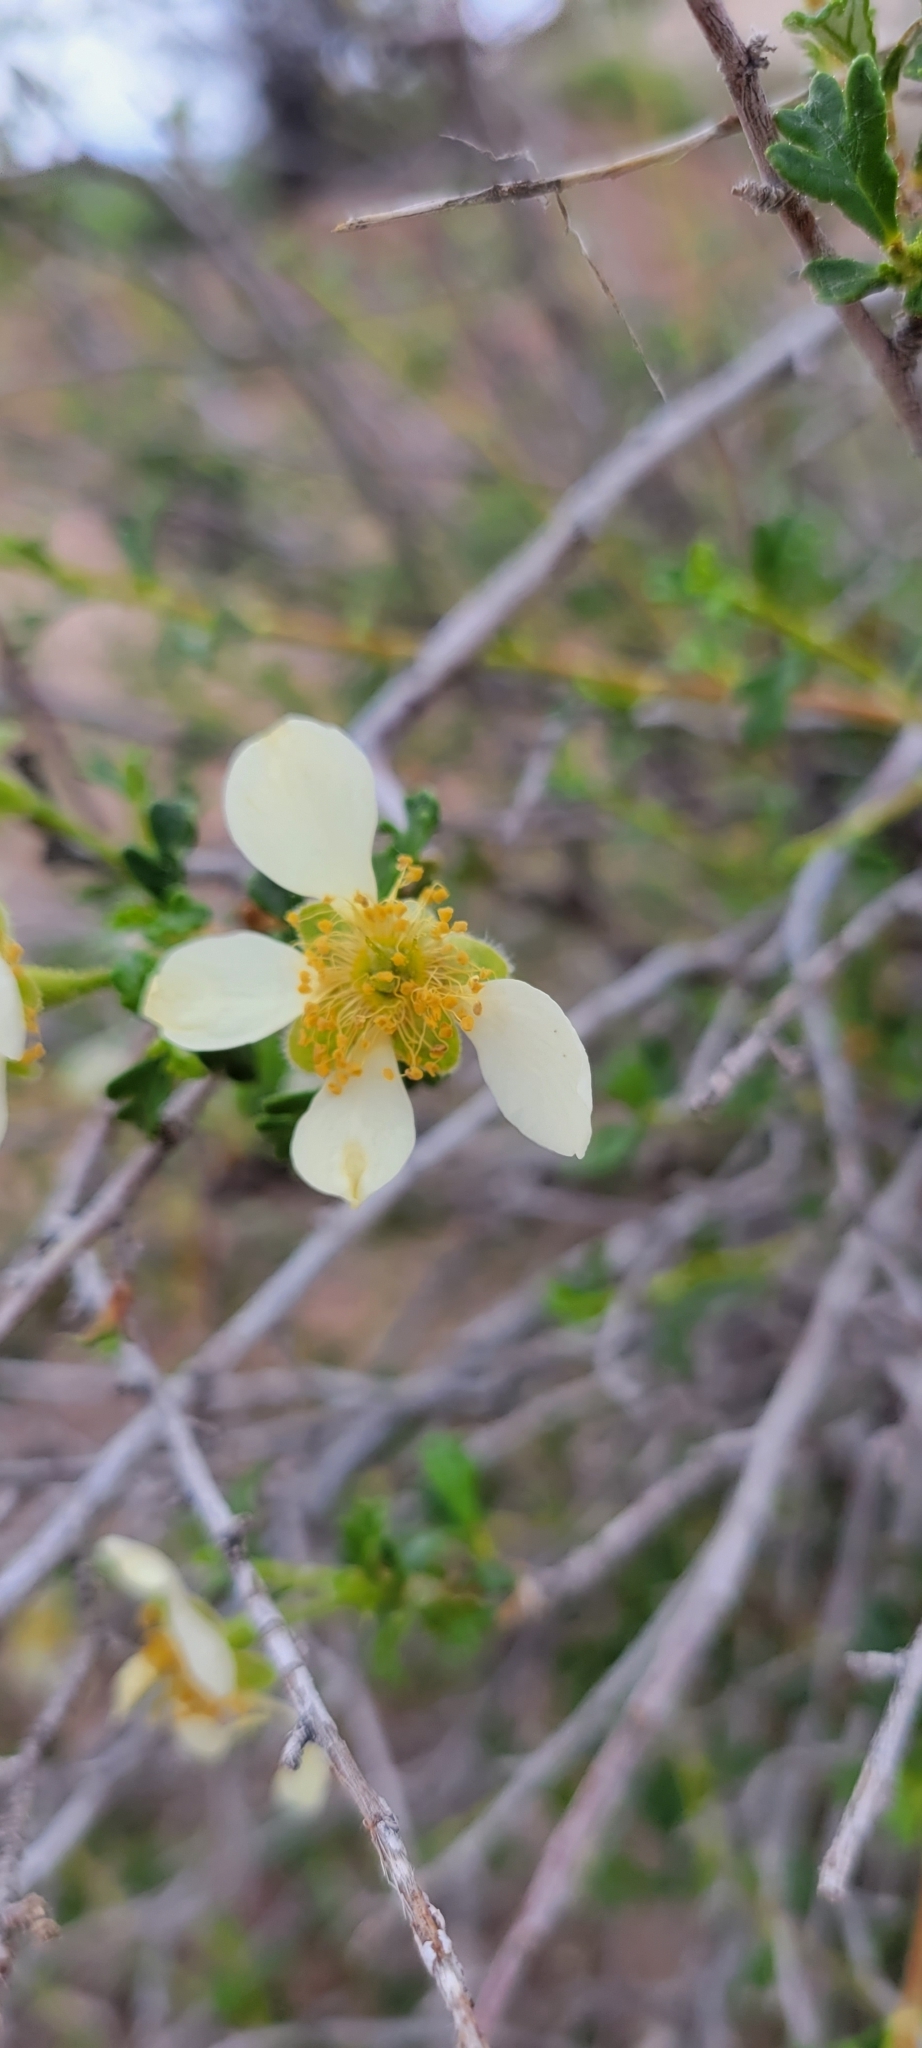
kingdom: Plantae
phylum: Tracheophyta
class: Magnoliopsida
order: Rosales
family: Rosaceae
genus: Purshia
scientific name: Purshia stansburiana
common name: Stansbury's cliffrose
